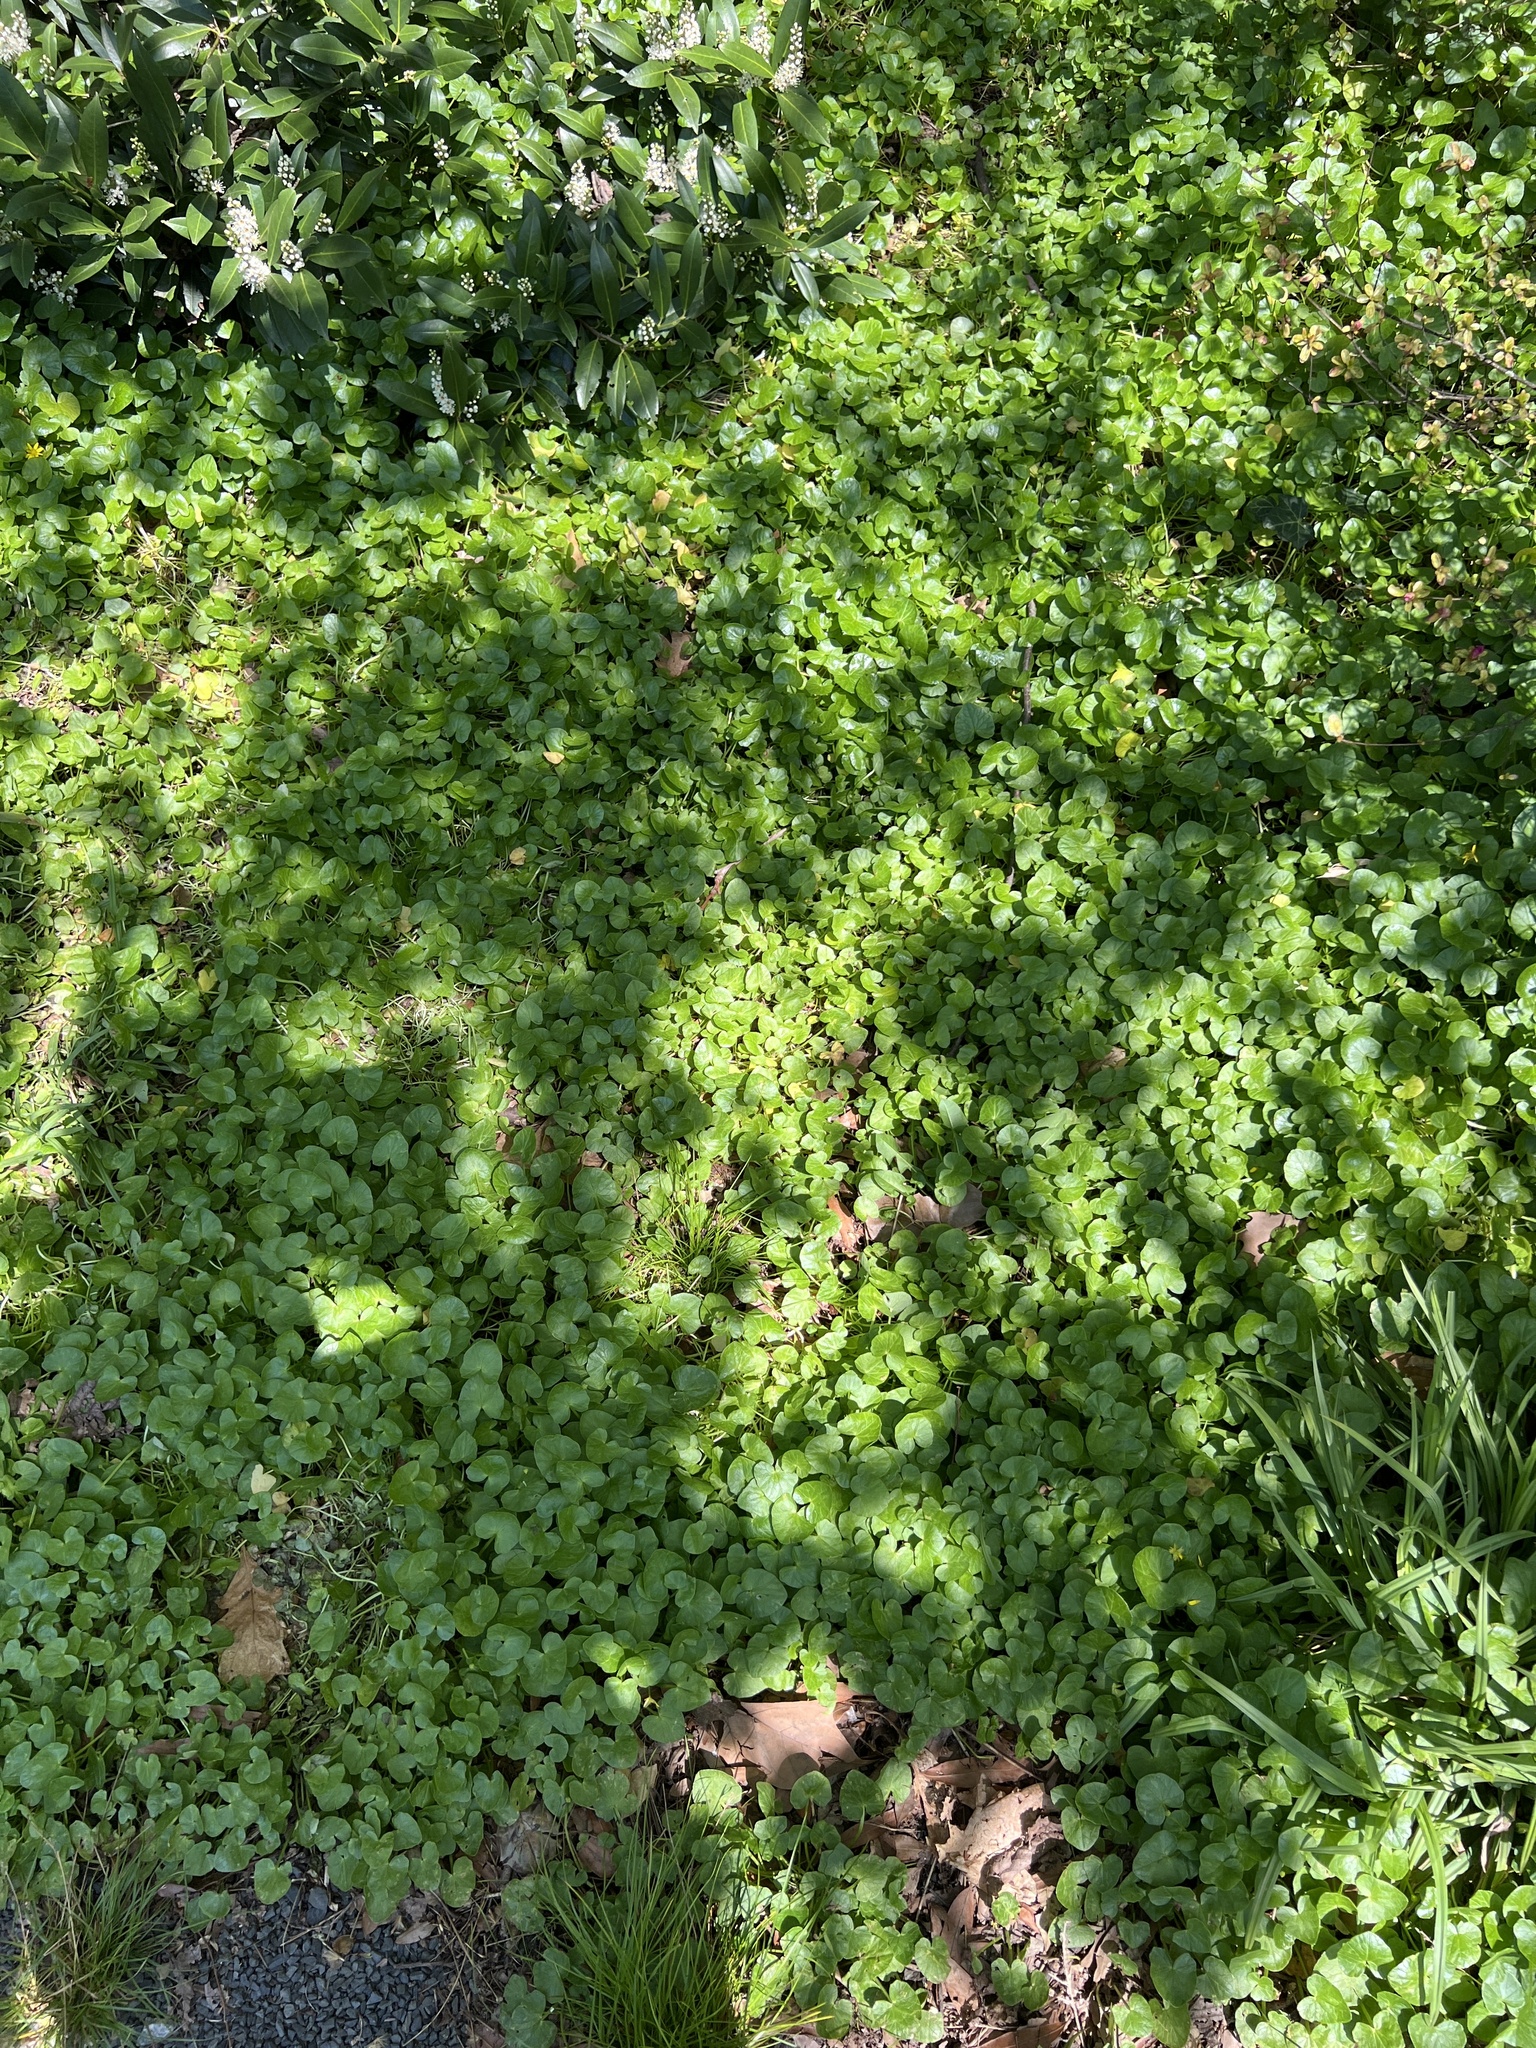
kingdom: Plantae
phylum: Tracheophyta
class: Magnoliopsida
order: Ranunculales
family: Ranunculaceae
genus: Ficaria
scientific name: Ficaria verna
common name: Lesser celandine
